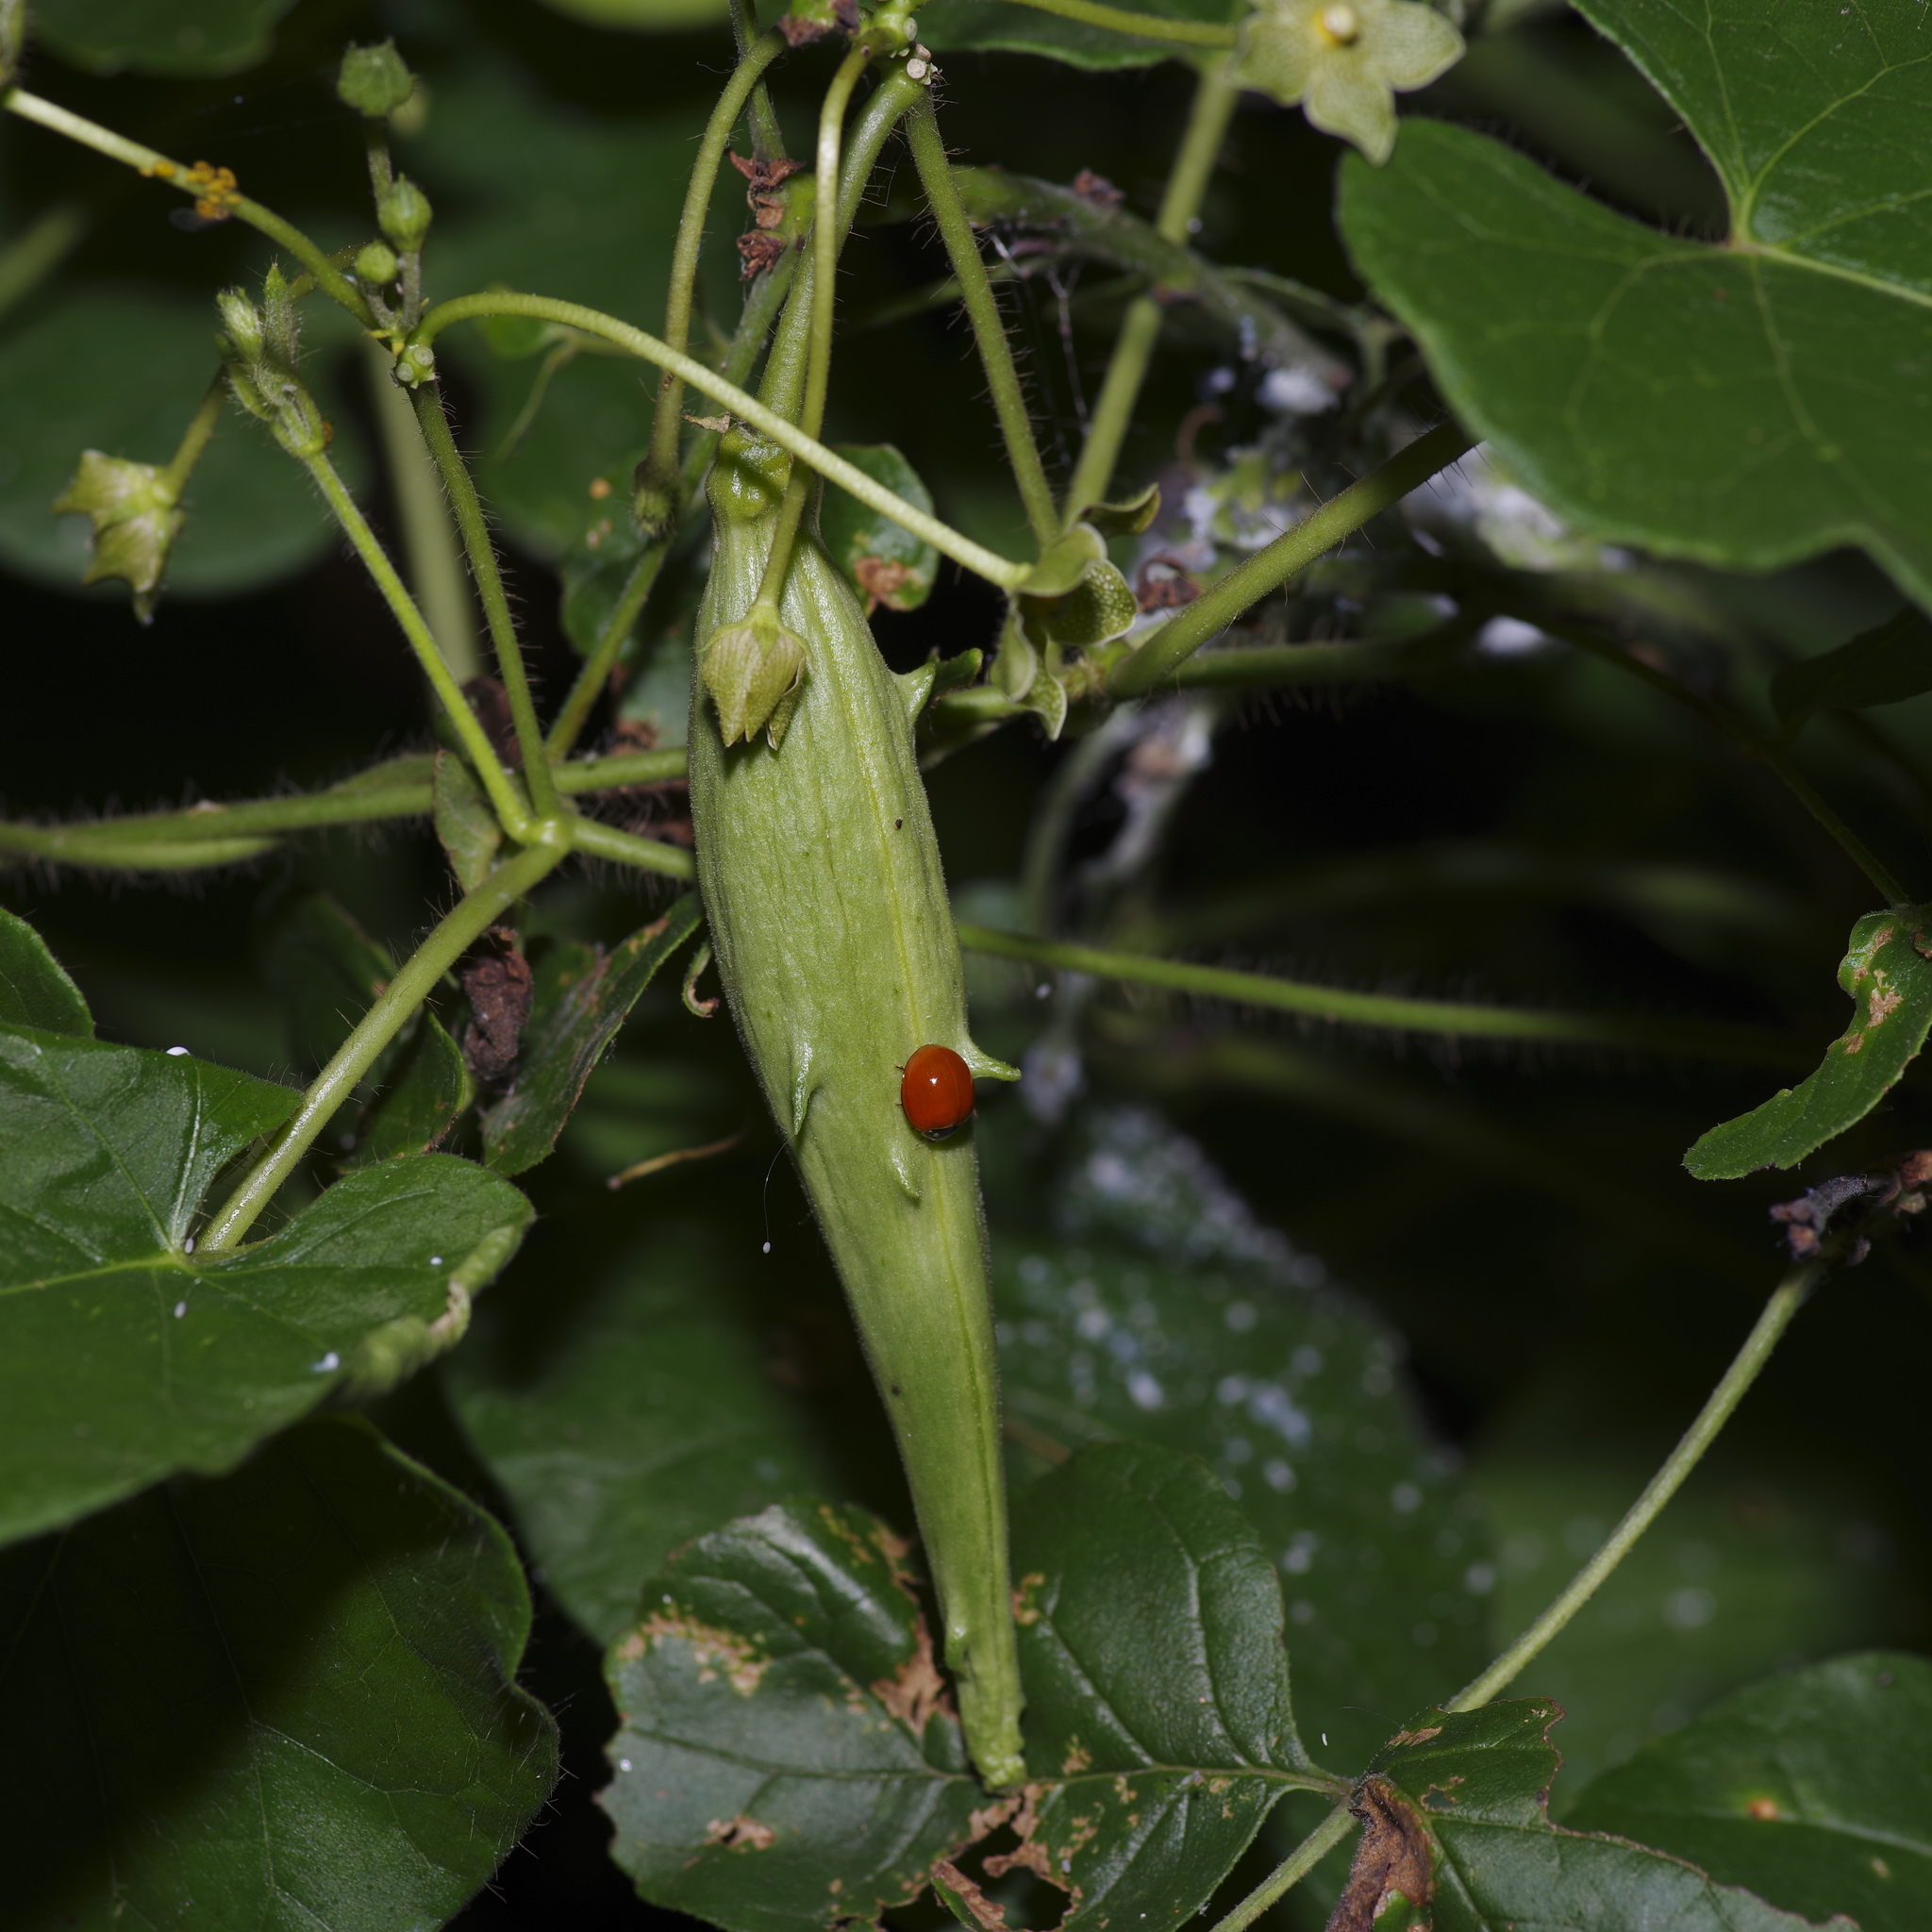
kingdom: Plantae
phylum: Tracheophyta
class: Magnoliopsida
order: Gentianales
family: Apocynaceae
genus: Dictyanthus
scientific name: Dictyanthus reticulatus
